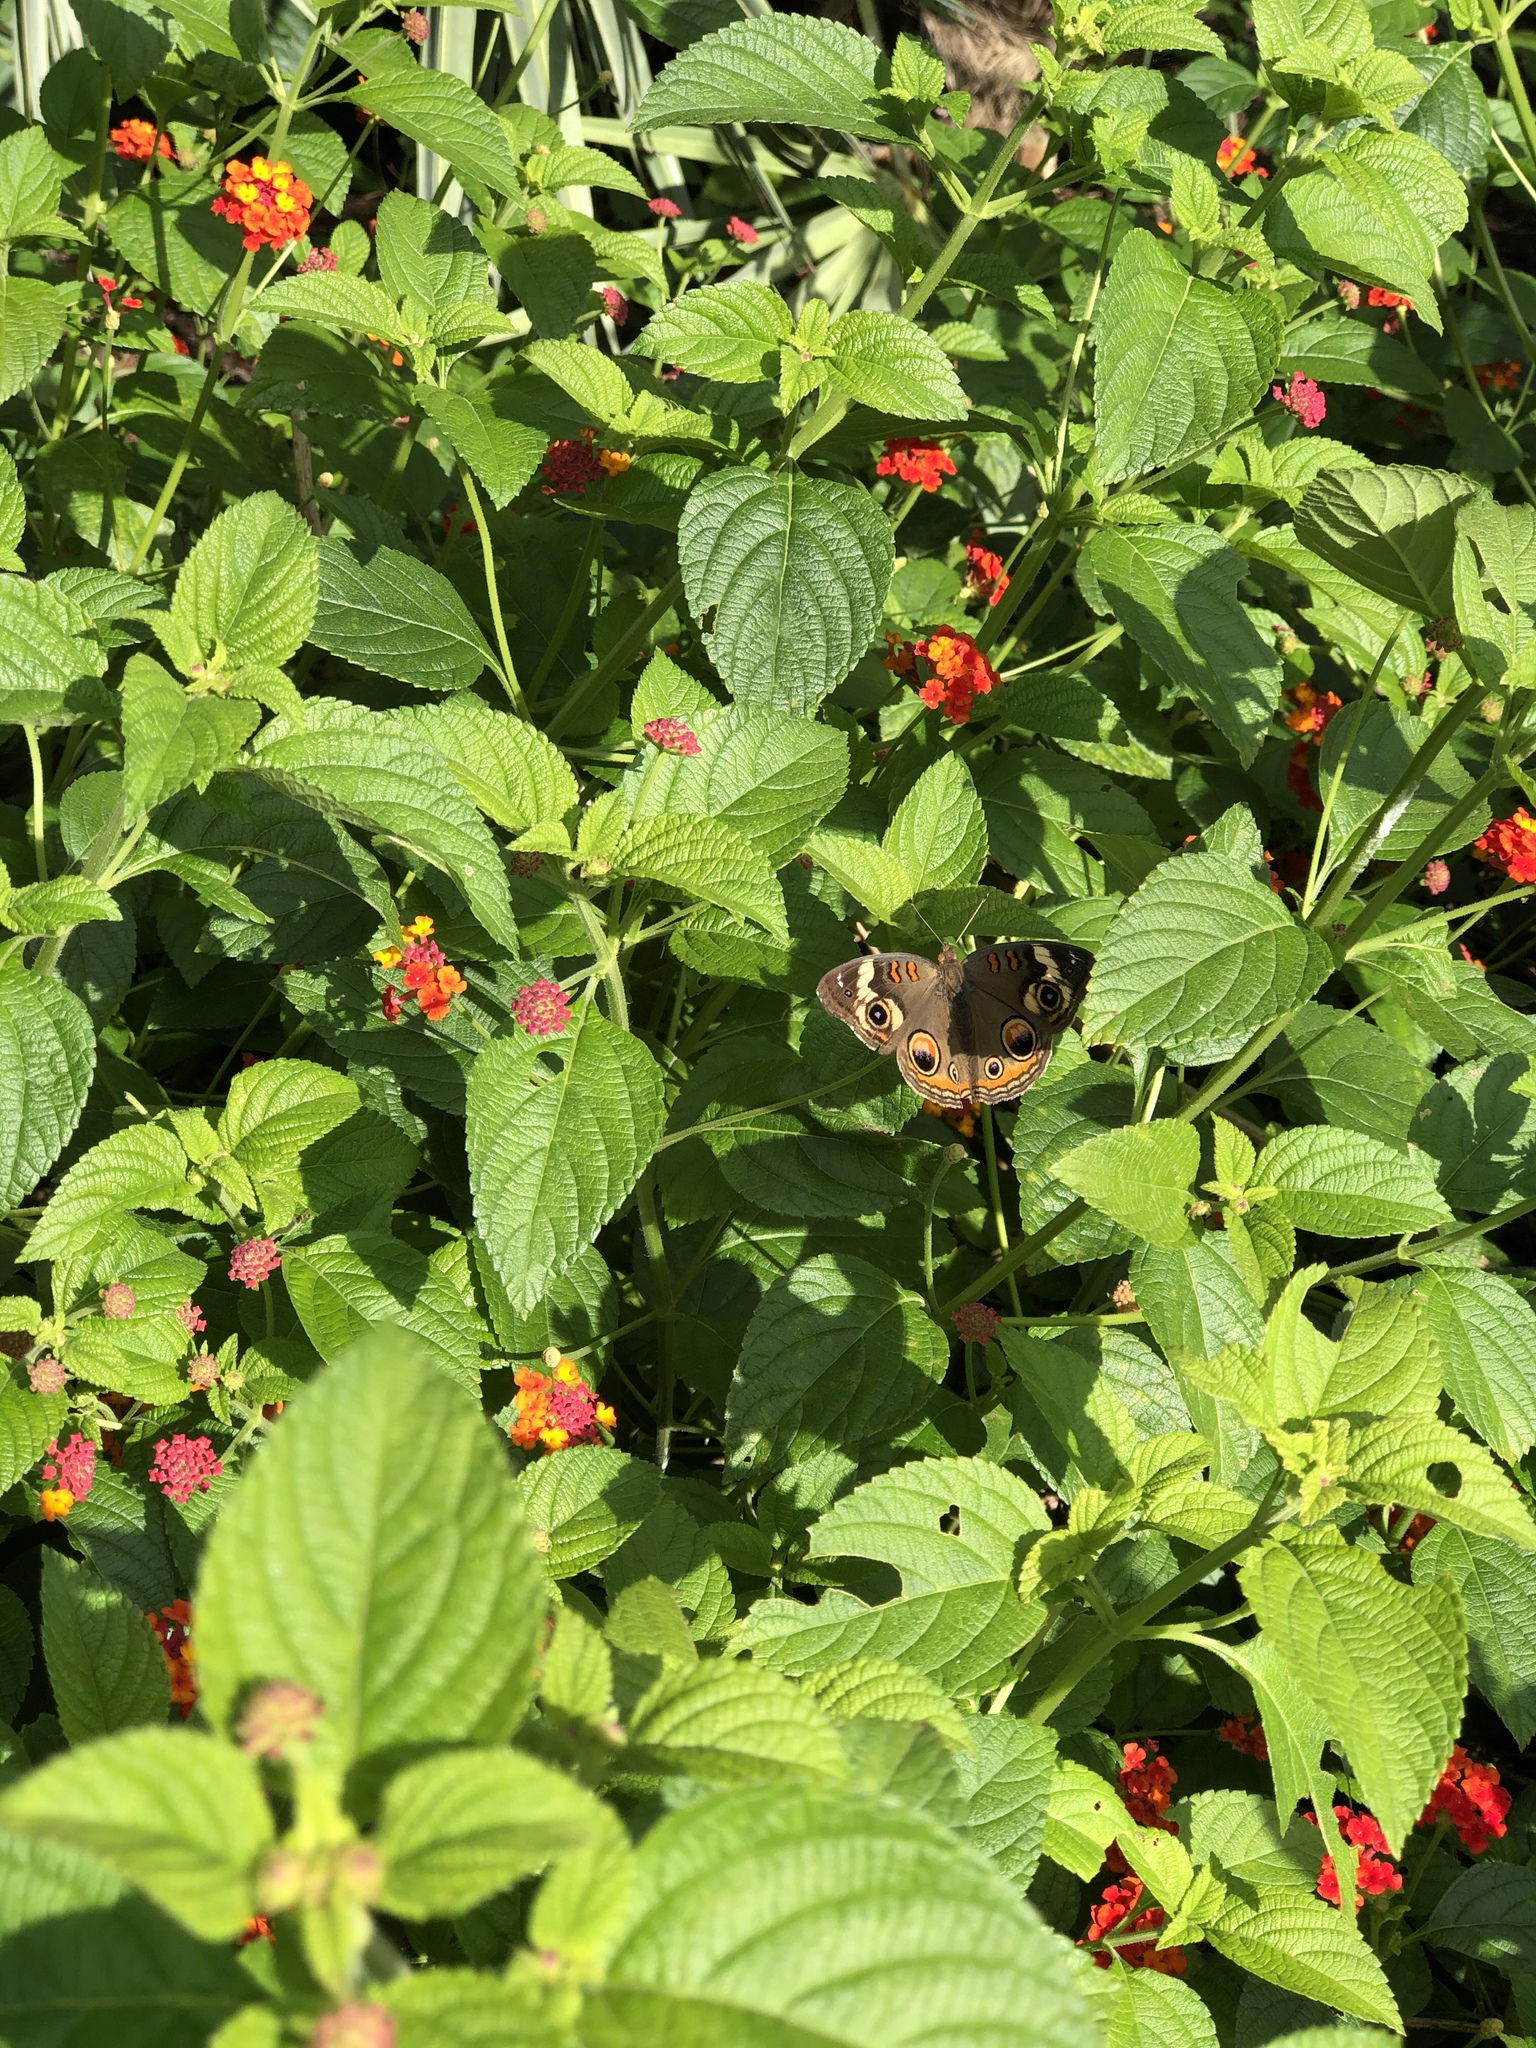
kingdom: Animalia
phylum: Arthropoda
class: Insecta
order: Lepidoptera
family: Nymphalidae
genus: Junonia
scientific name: Junonia coenia
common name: Common buckeye
